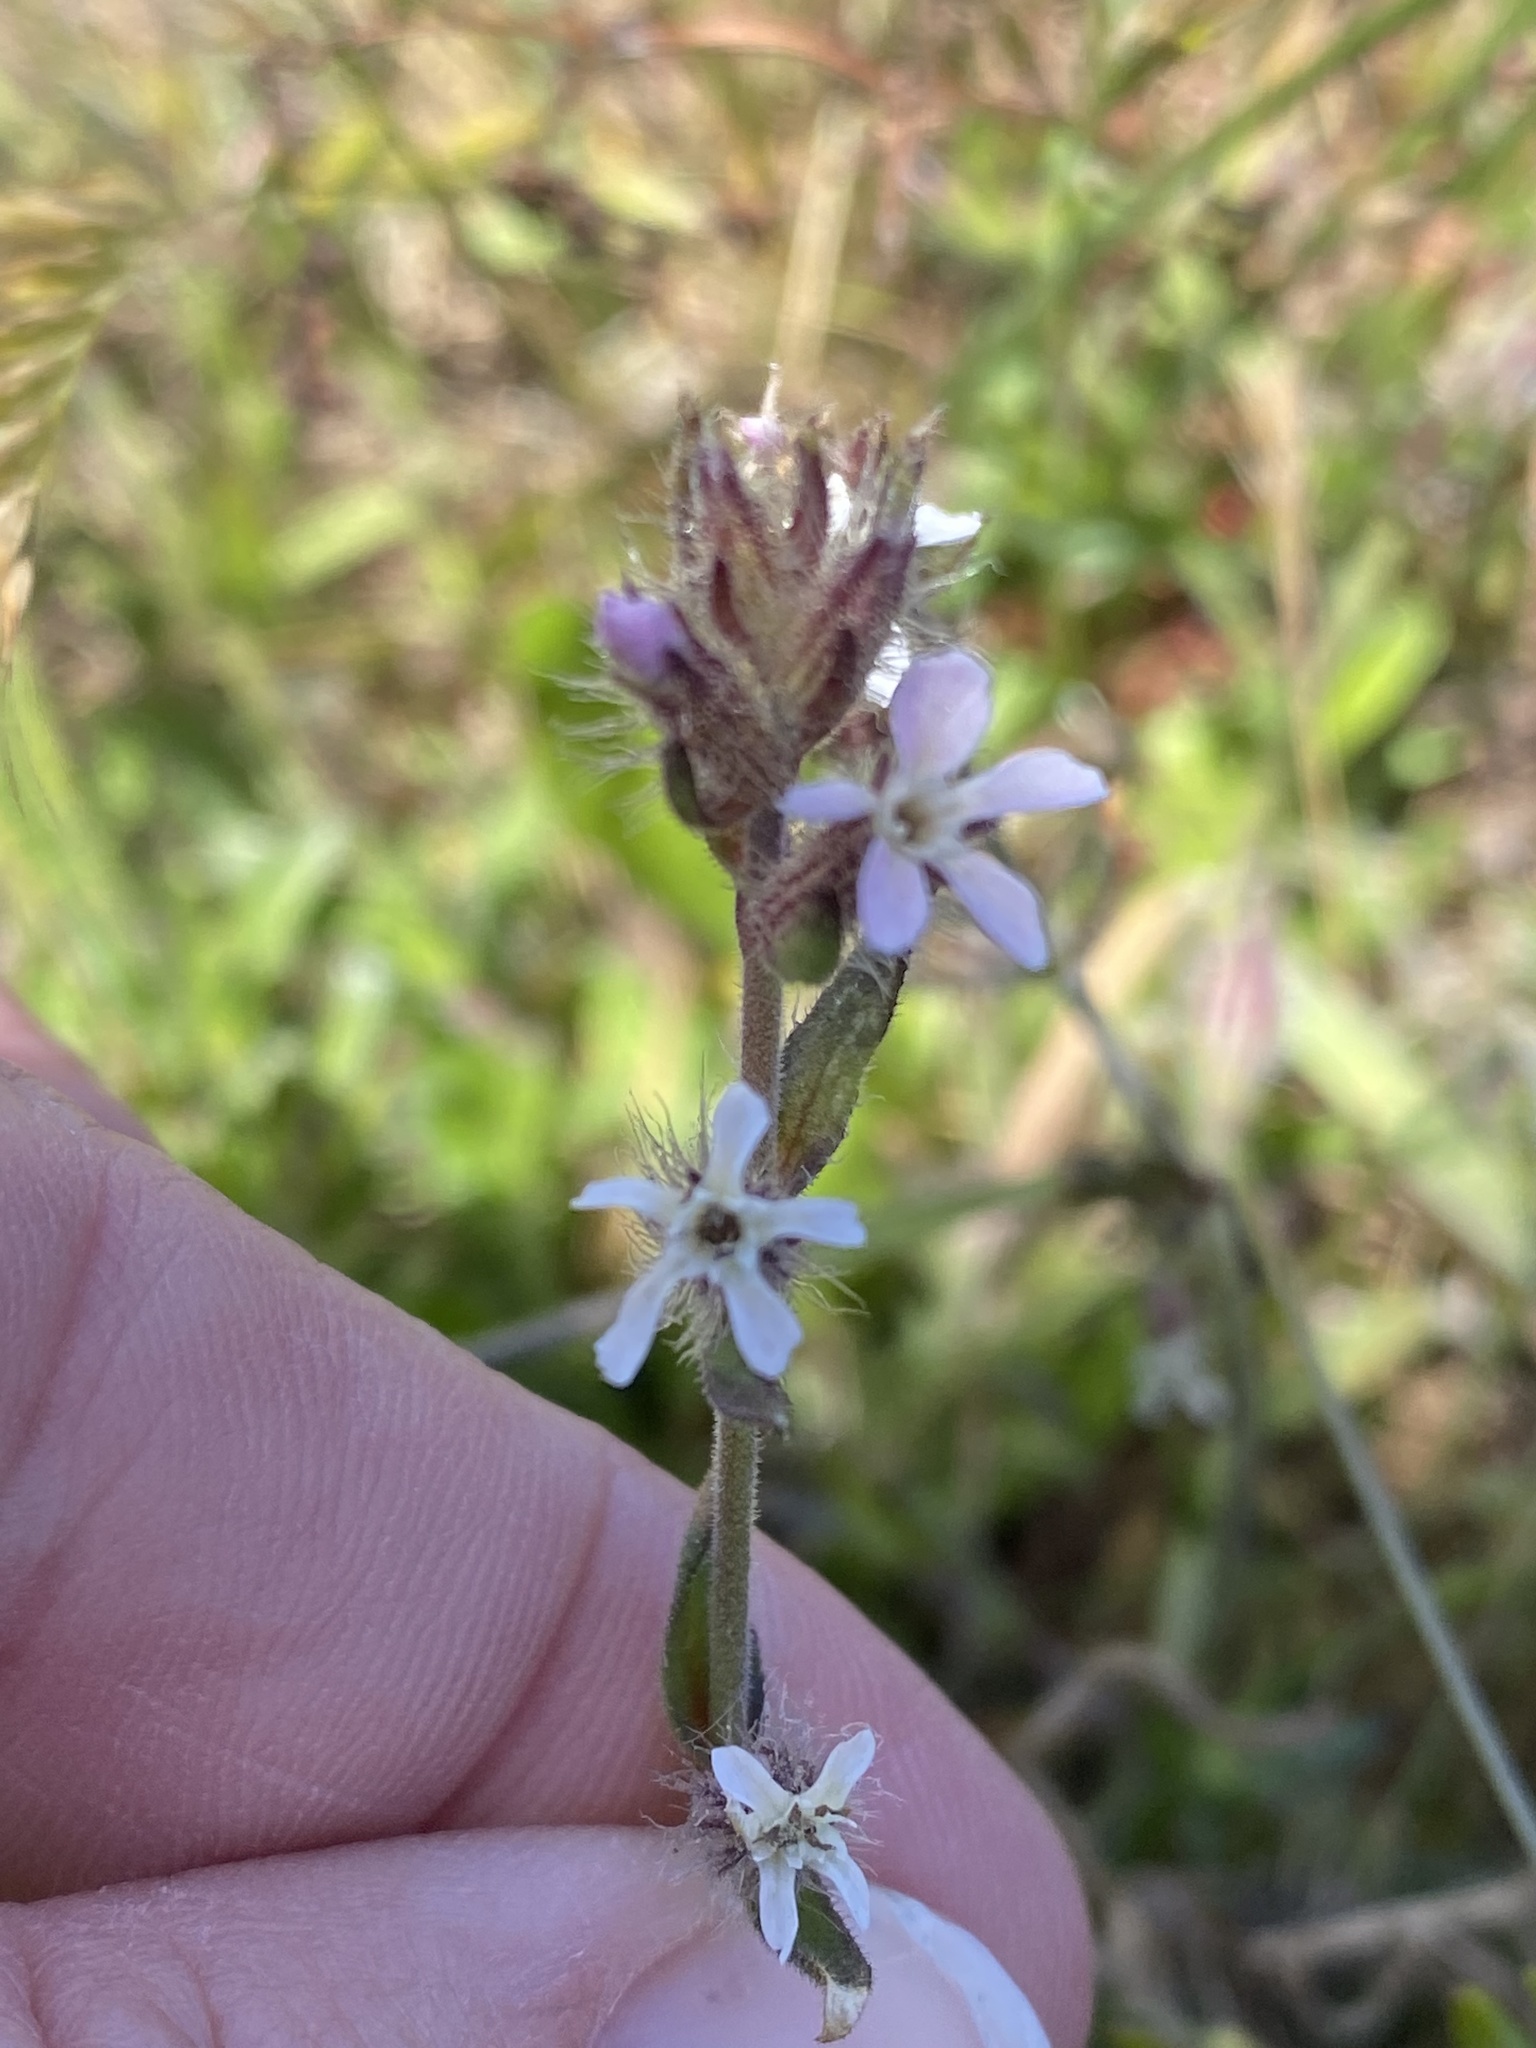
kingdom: Plantae
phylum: Tracheophyta
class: Magnoliopsida
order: Caryophyllales
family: Caryophyllaceae
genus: Silene
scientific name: Silene gallica
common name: Small-flowered catchfly
